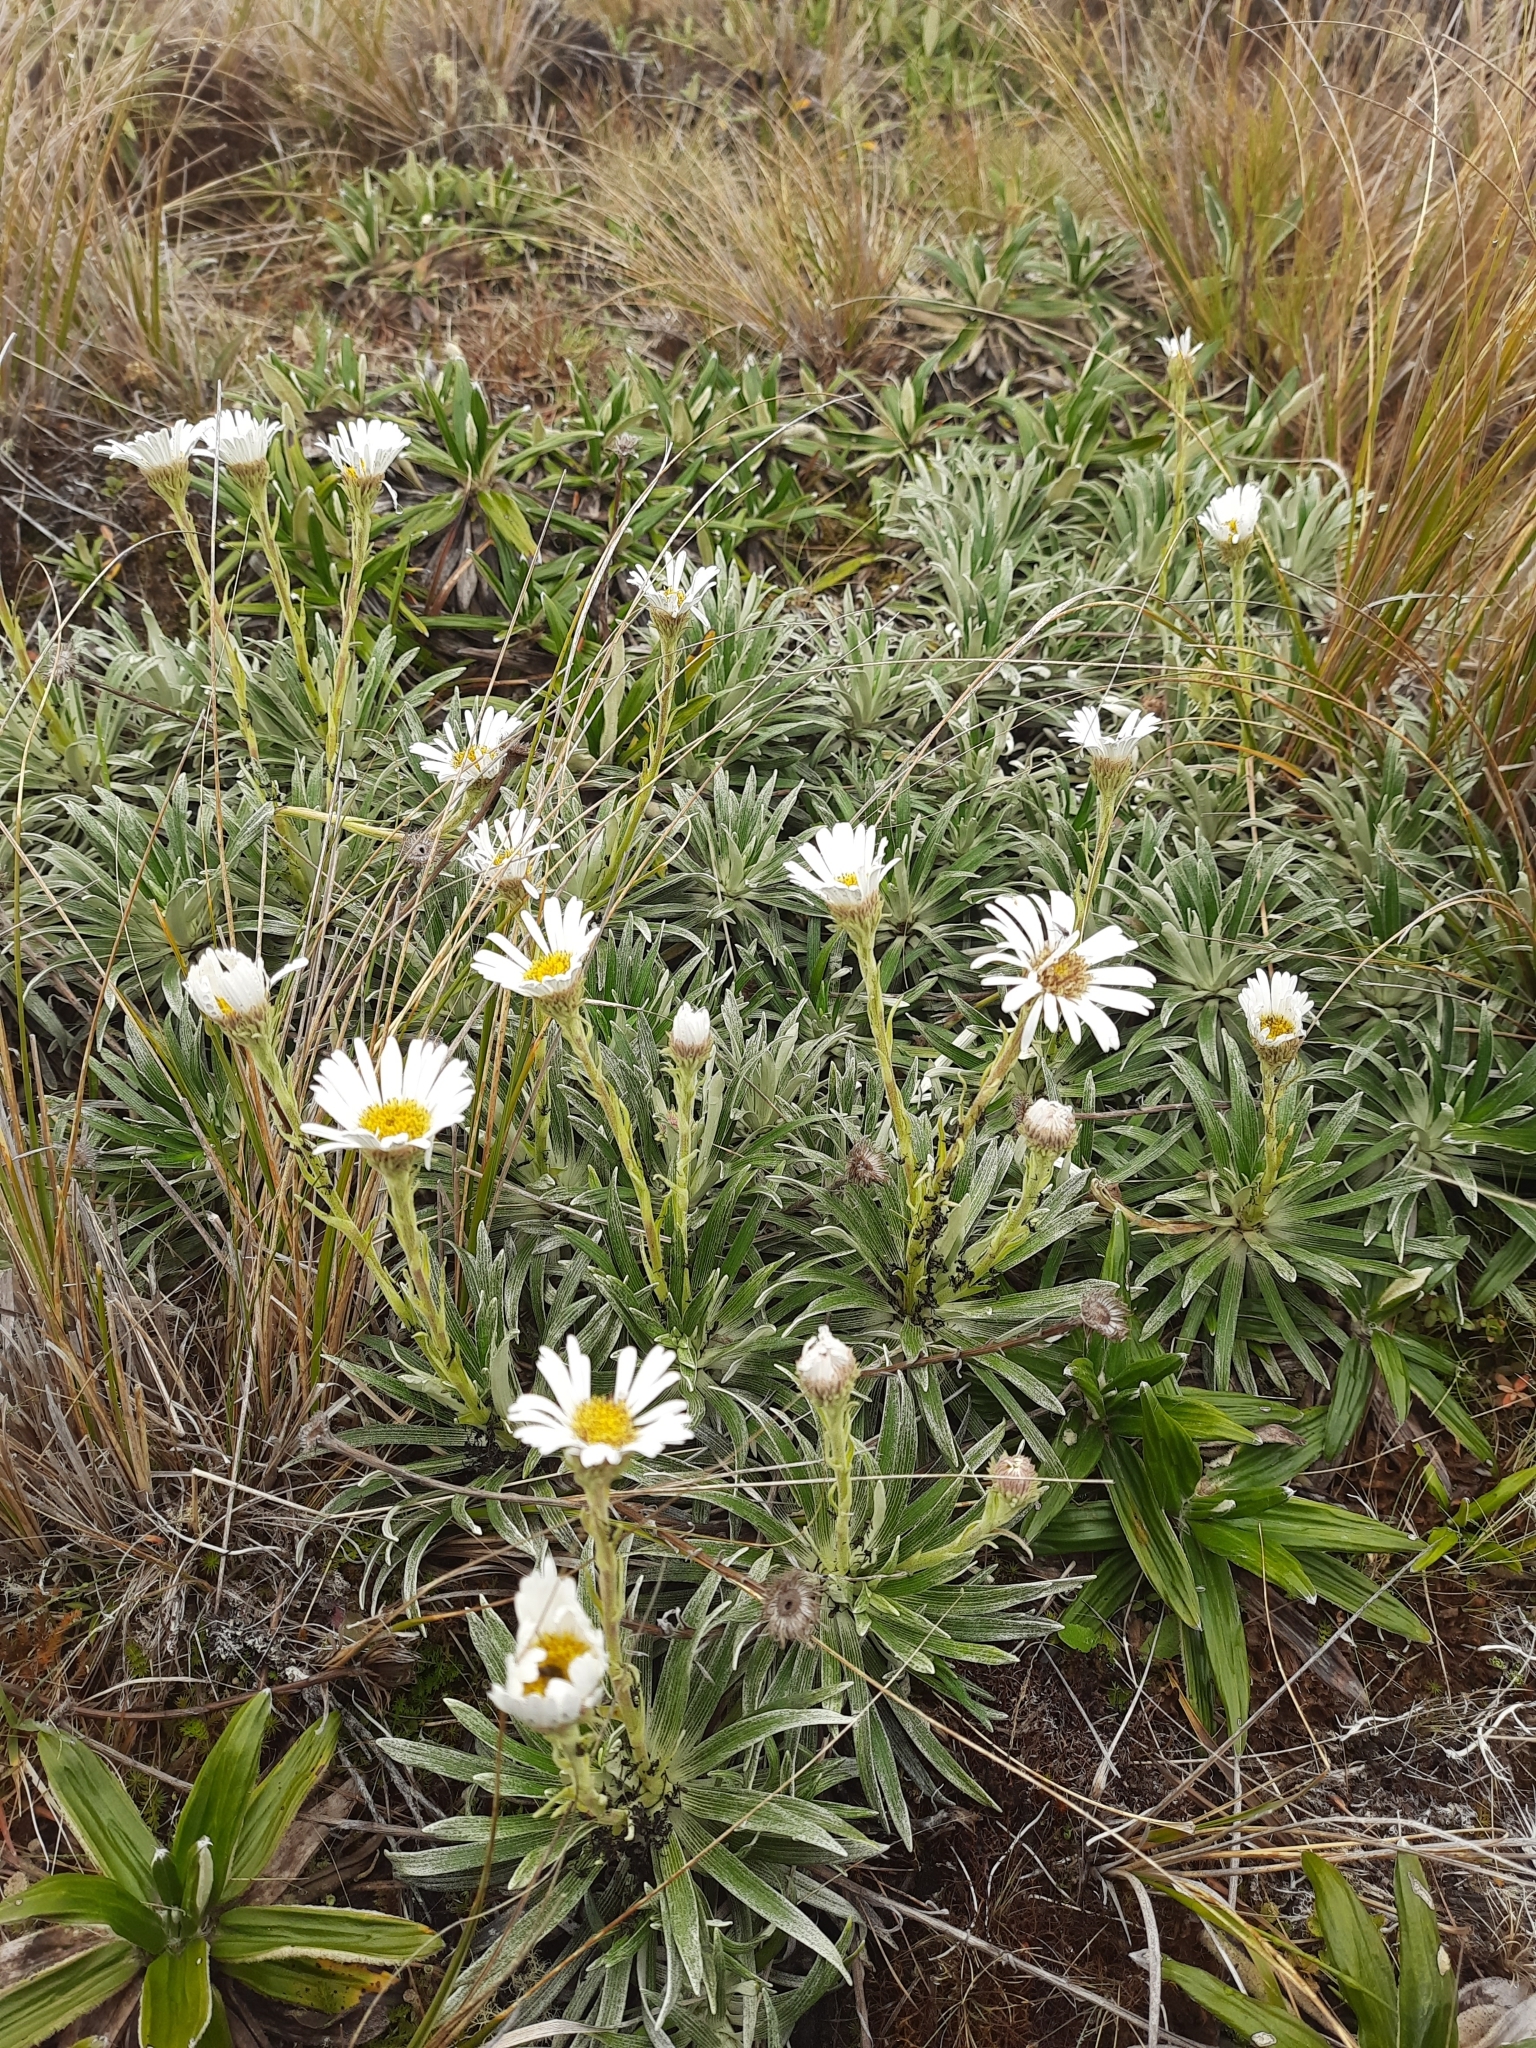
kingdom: Plantae
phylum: Tracheophyta
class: Magnoliopsida
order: Asterales
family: Asteraceae
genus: Celmisia
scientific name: Celmisia viscosa
